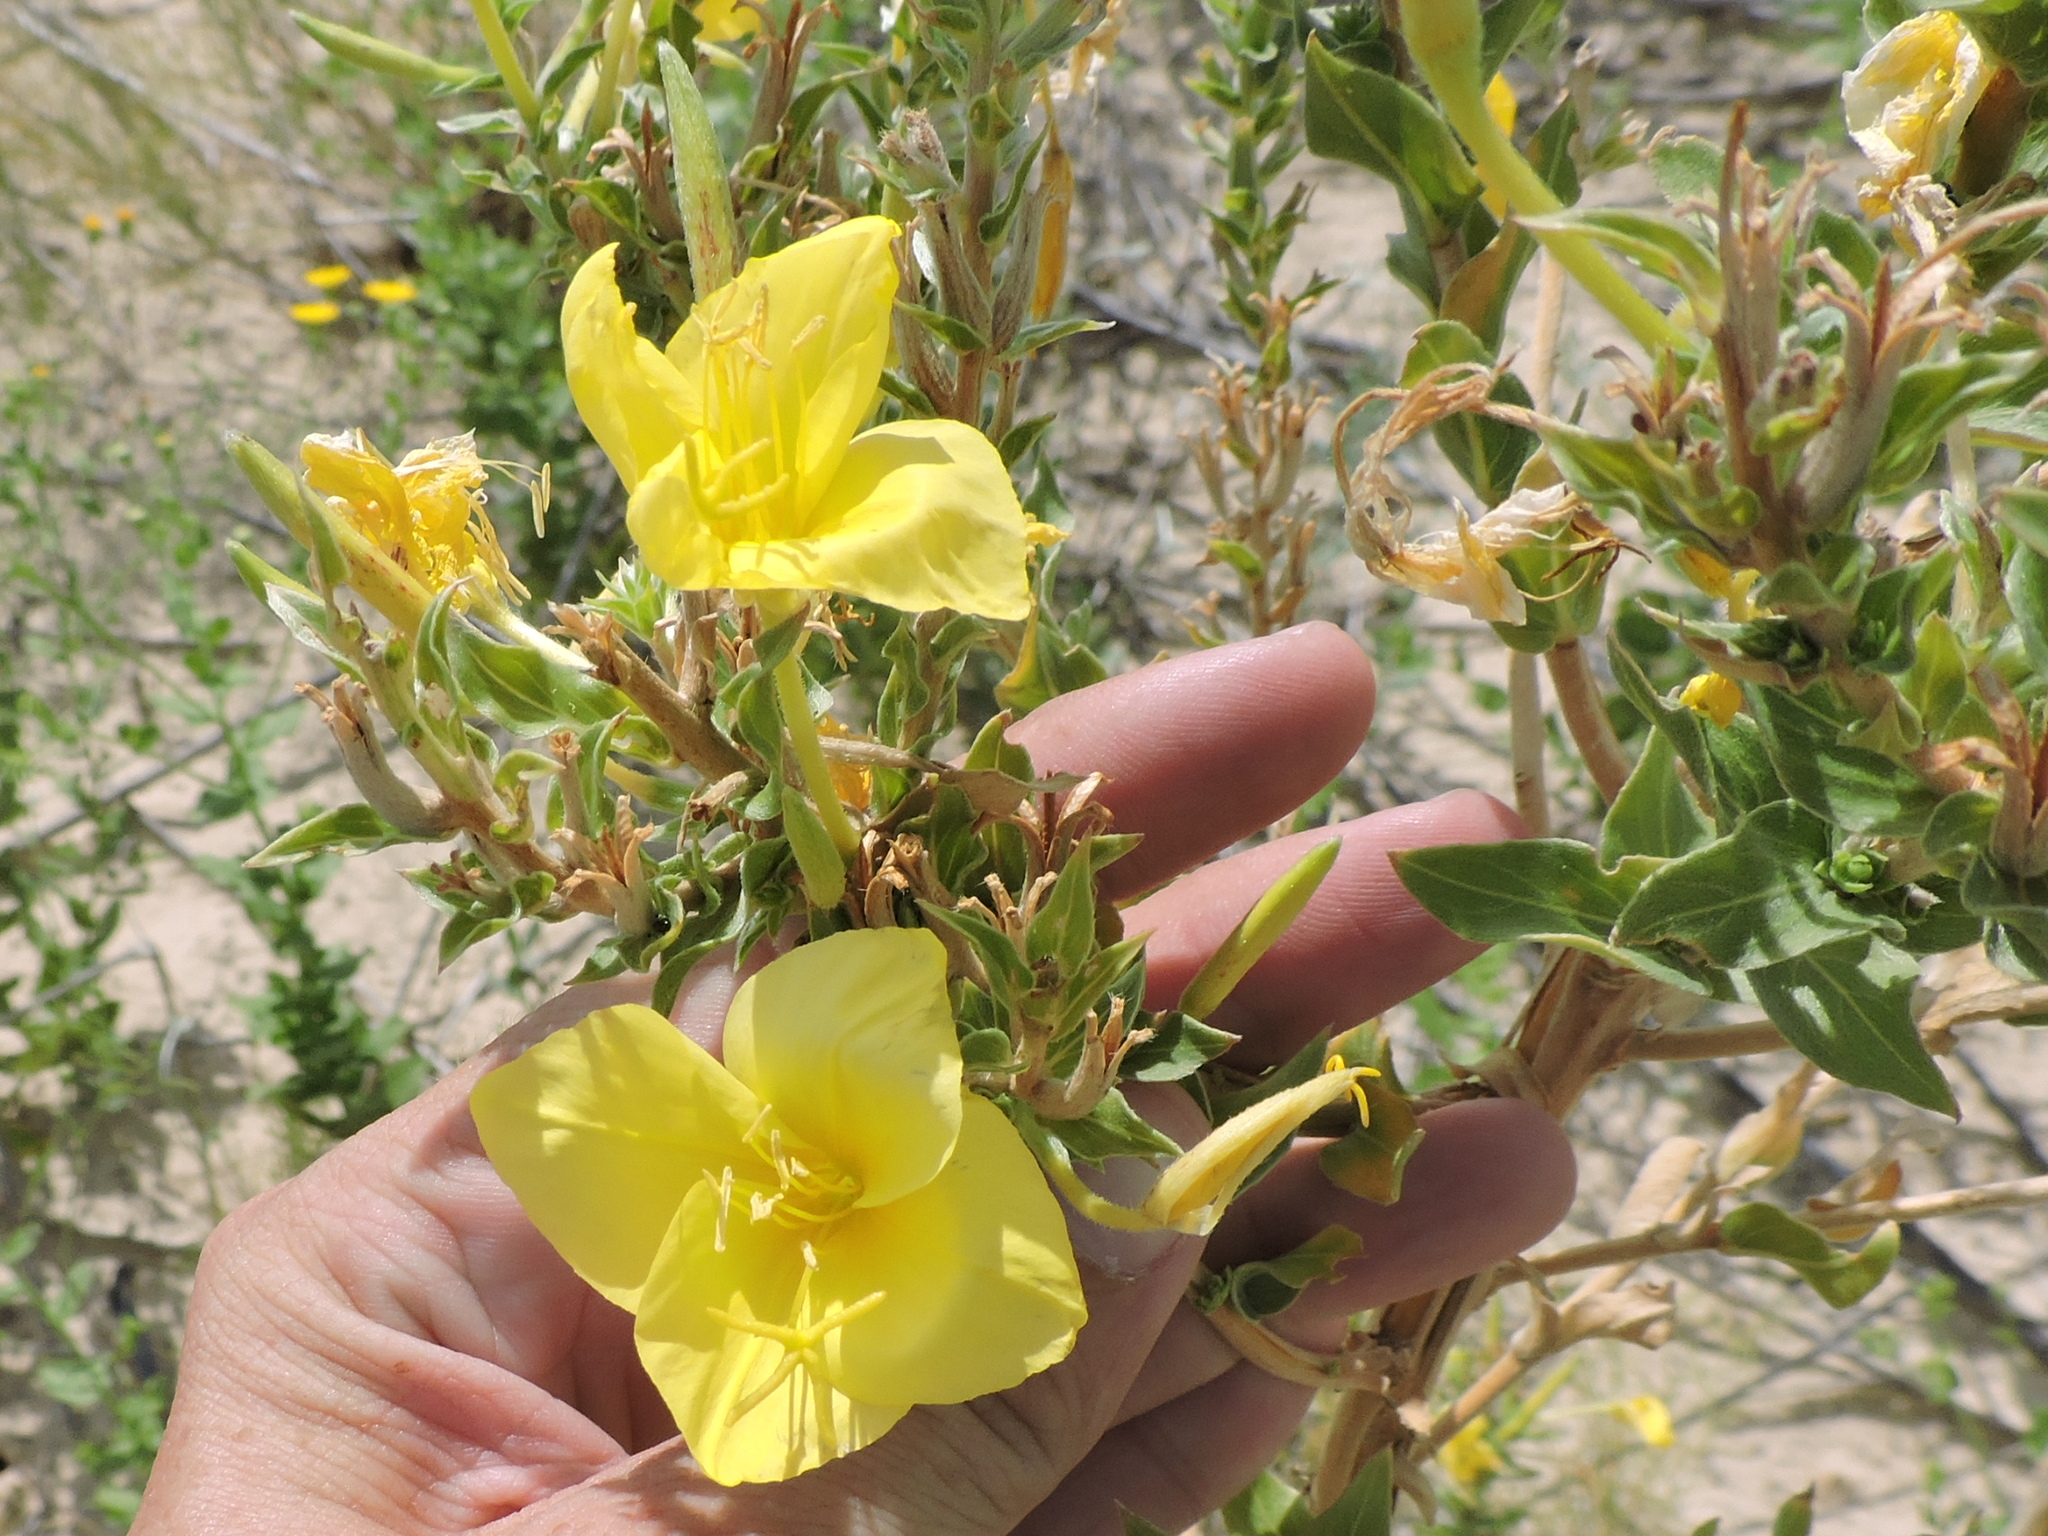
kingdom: Plantae
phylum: Tracheophyta
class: Magnoliopsida
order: Myrtales
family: Onagraceae
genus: Oenothera
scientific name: Oenothera rhombipetala
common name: Four-points evening-primrose
